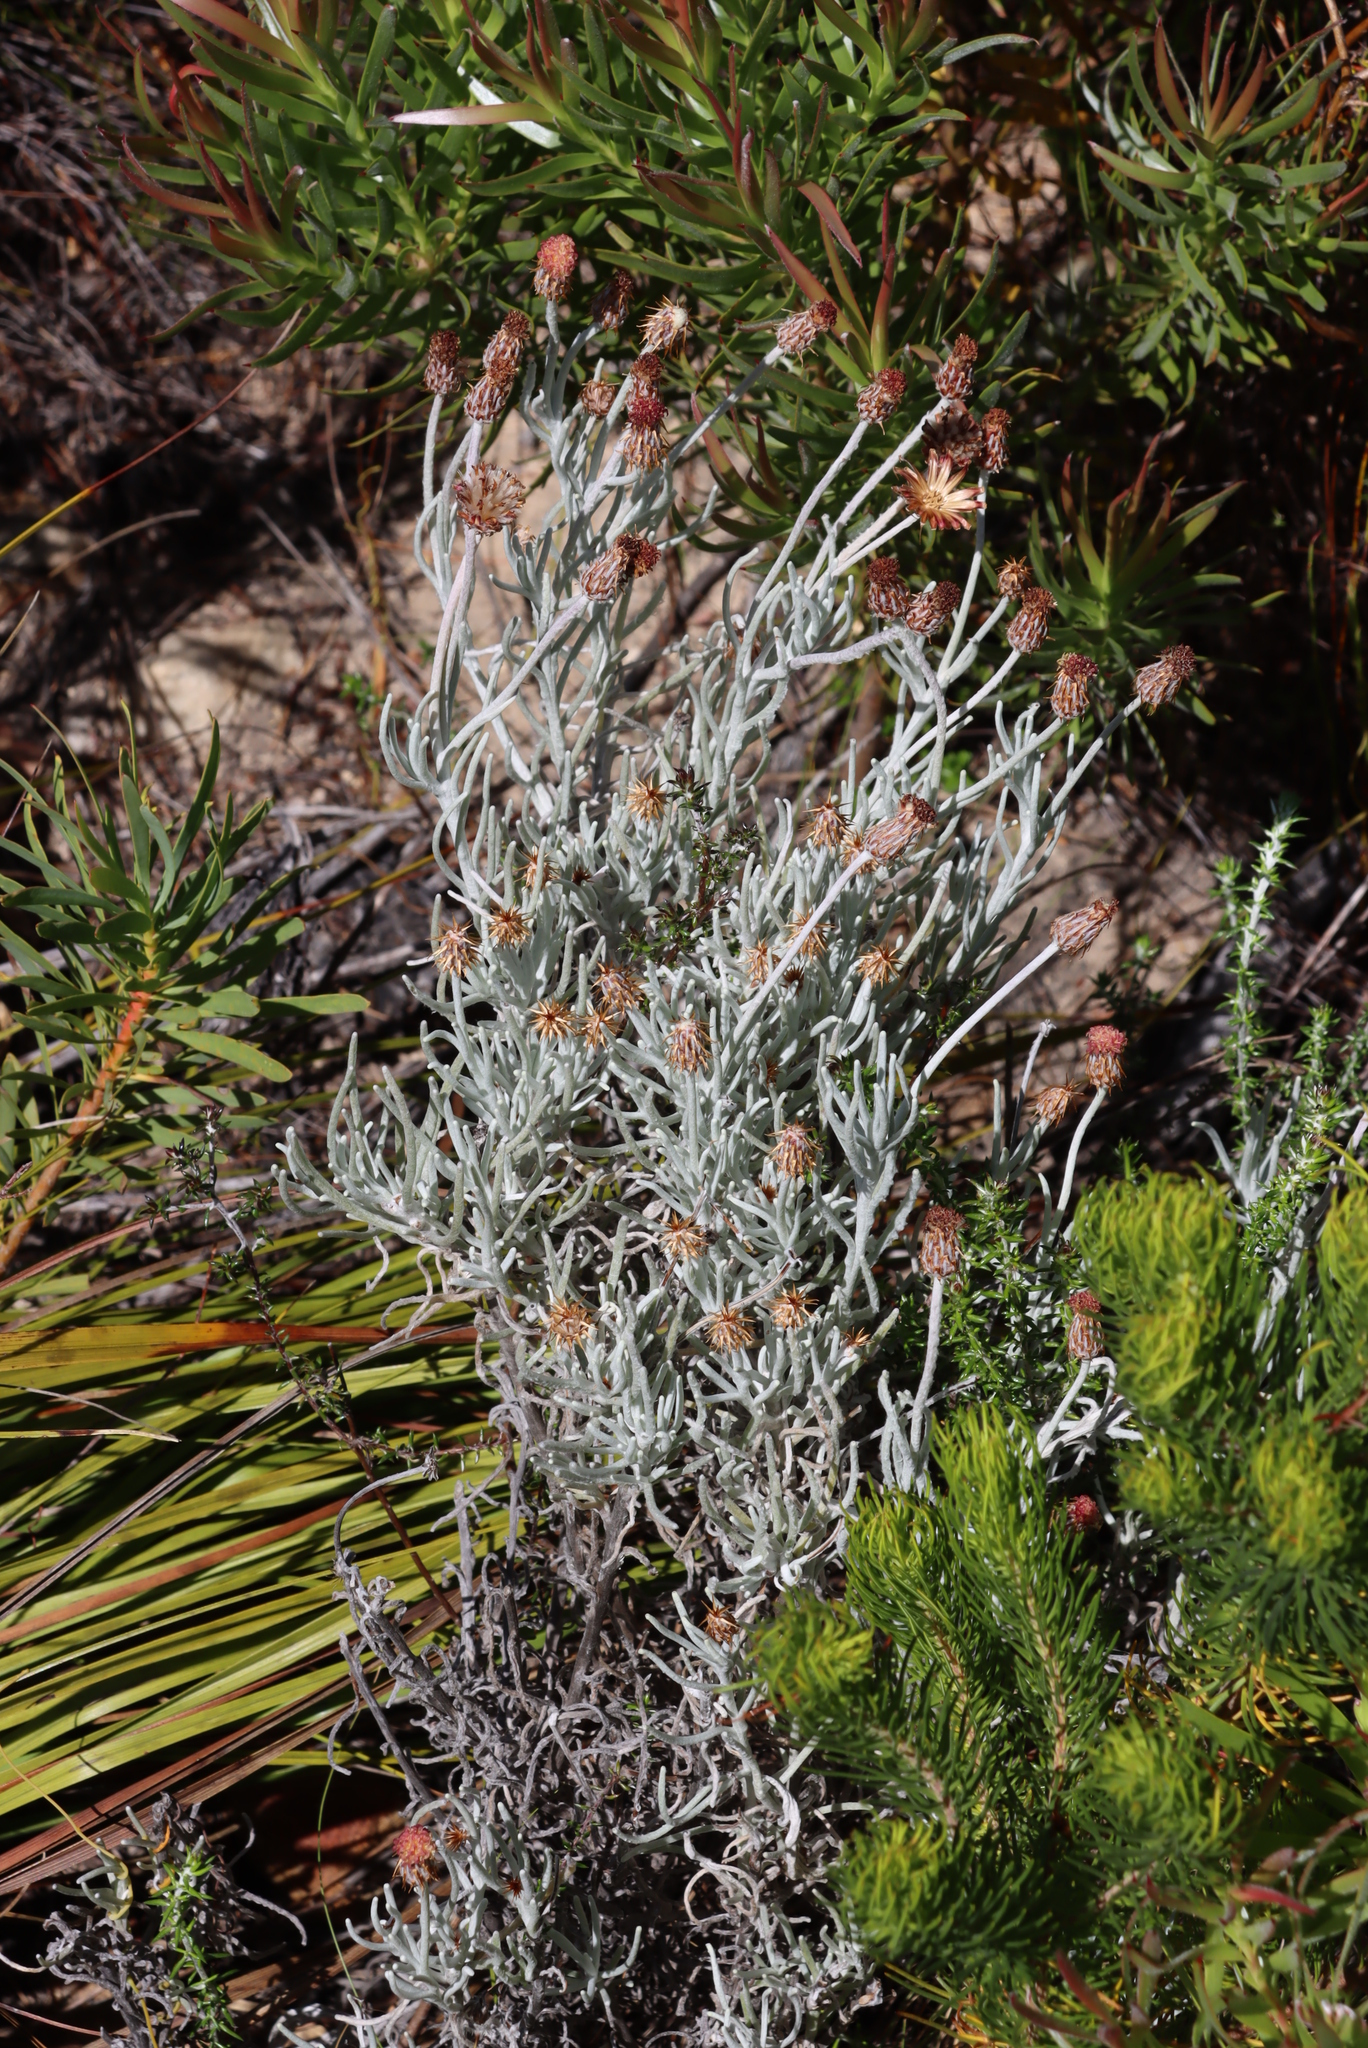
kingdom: Plantae
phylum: Tracheophyta
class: Magnoliopsida
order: Asterales
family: Asteraceae
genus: Syncarpha
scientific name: Syncarpha gnaphaloides
